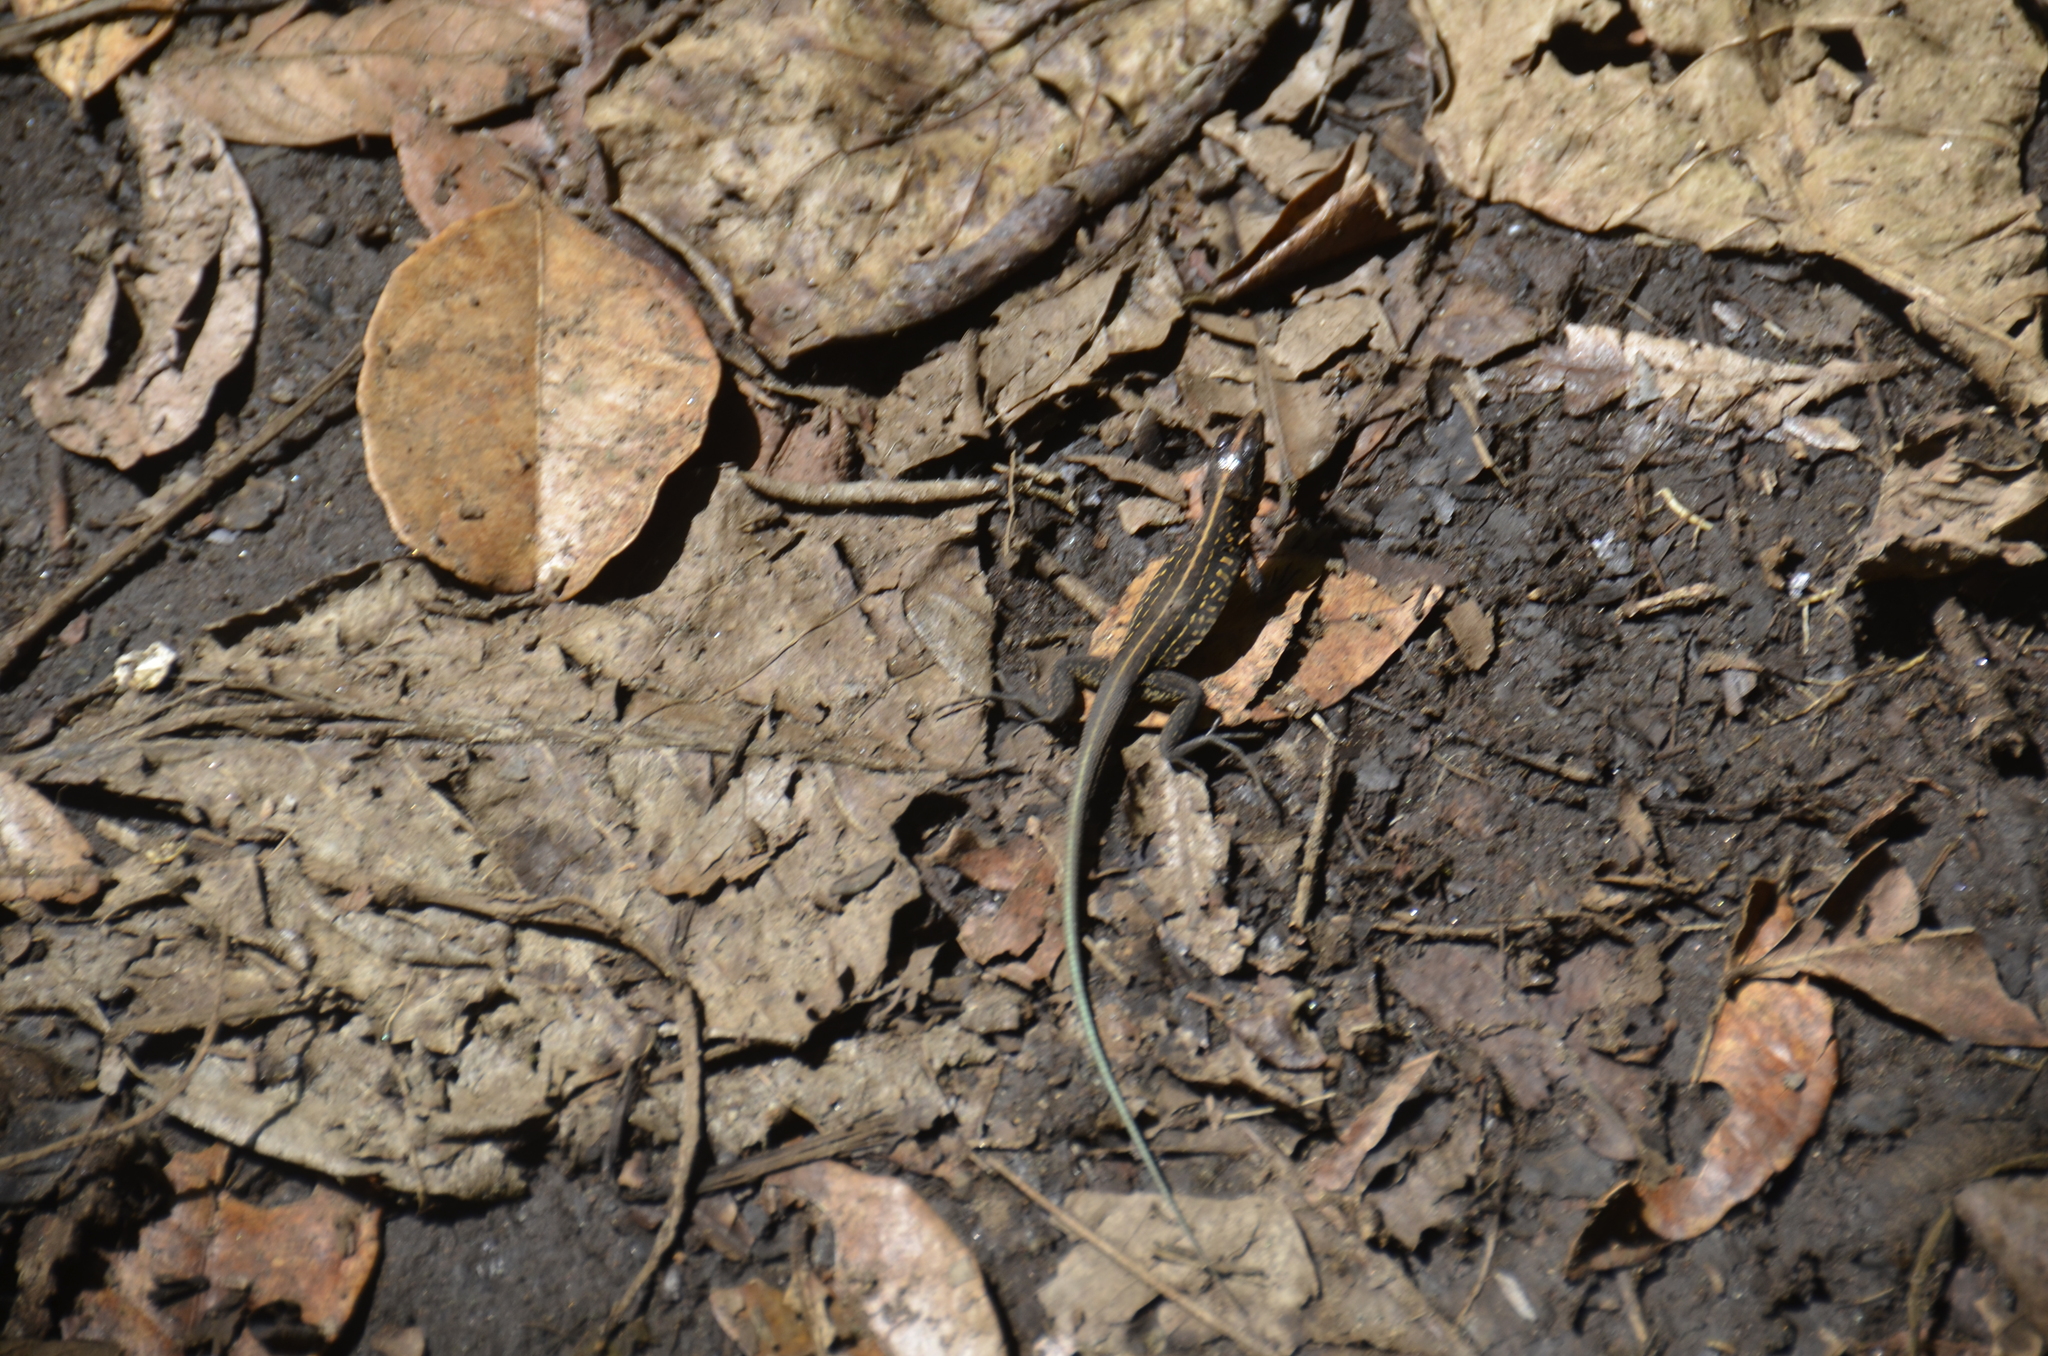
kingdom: Animalia
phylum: Chordata
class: Squamata
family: Teiidae
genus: Holcosus
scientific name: Holcosus festivus
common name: Middle american ameiva
